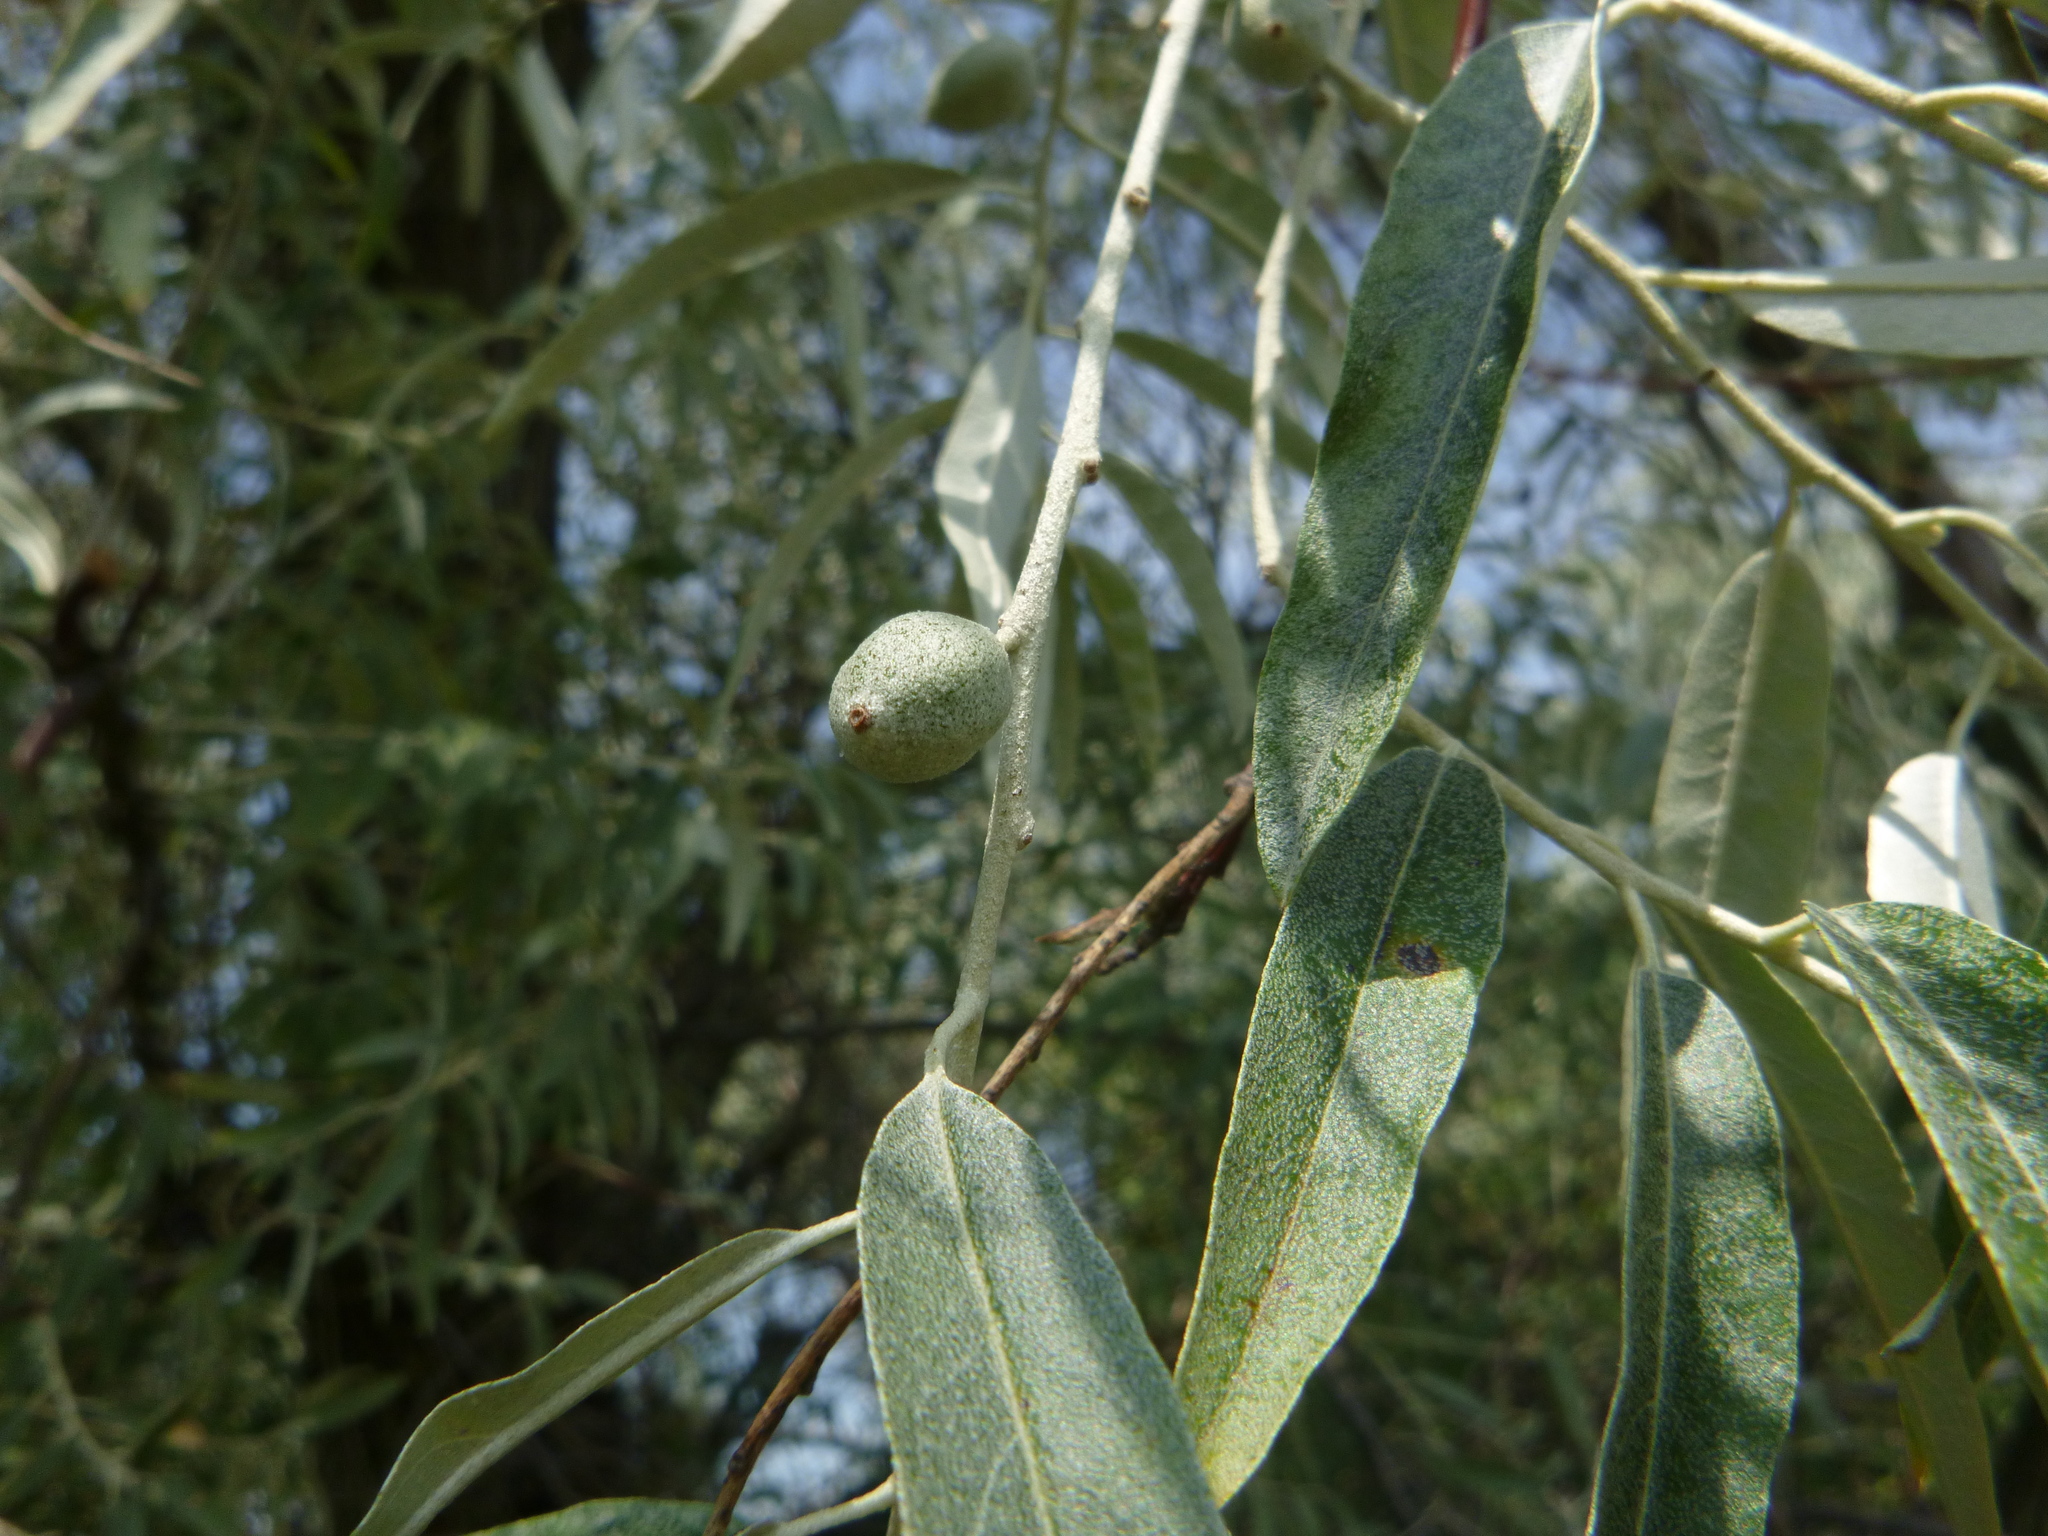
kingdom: Plantae
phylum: Tracheophyta
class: Magnoliopsida
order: Rosales
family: Elaeagnaceae
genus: Elaeagnus
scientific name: Elaeagnus angustifolia
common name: Russian olive
